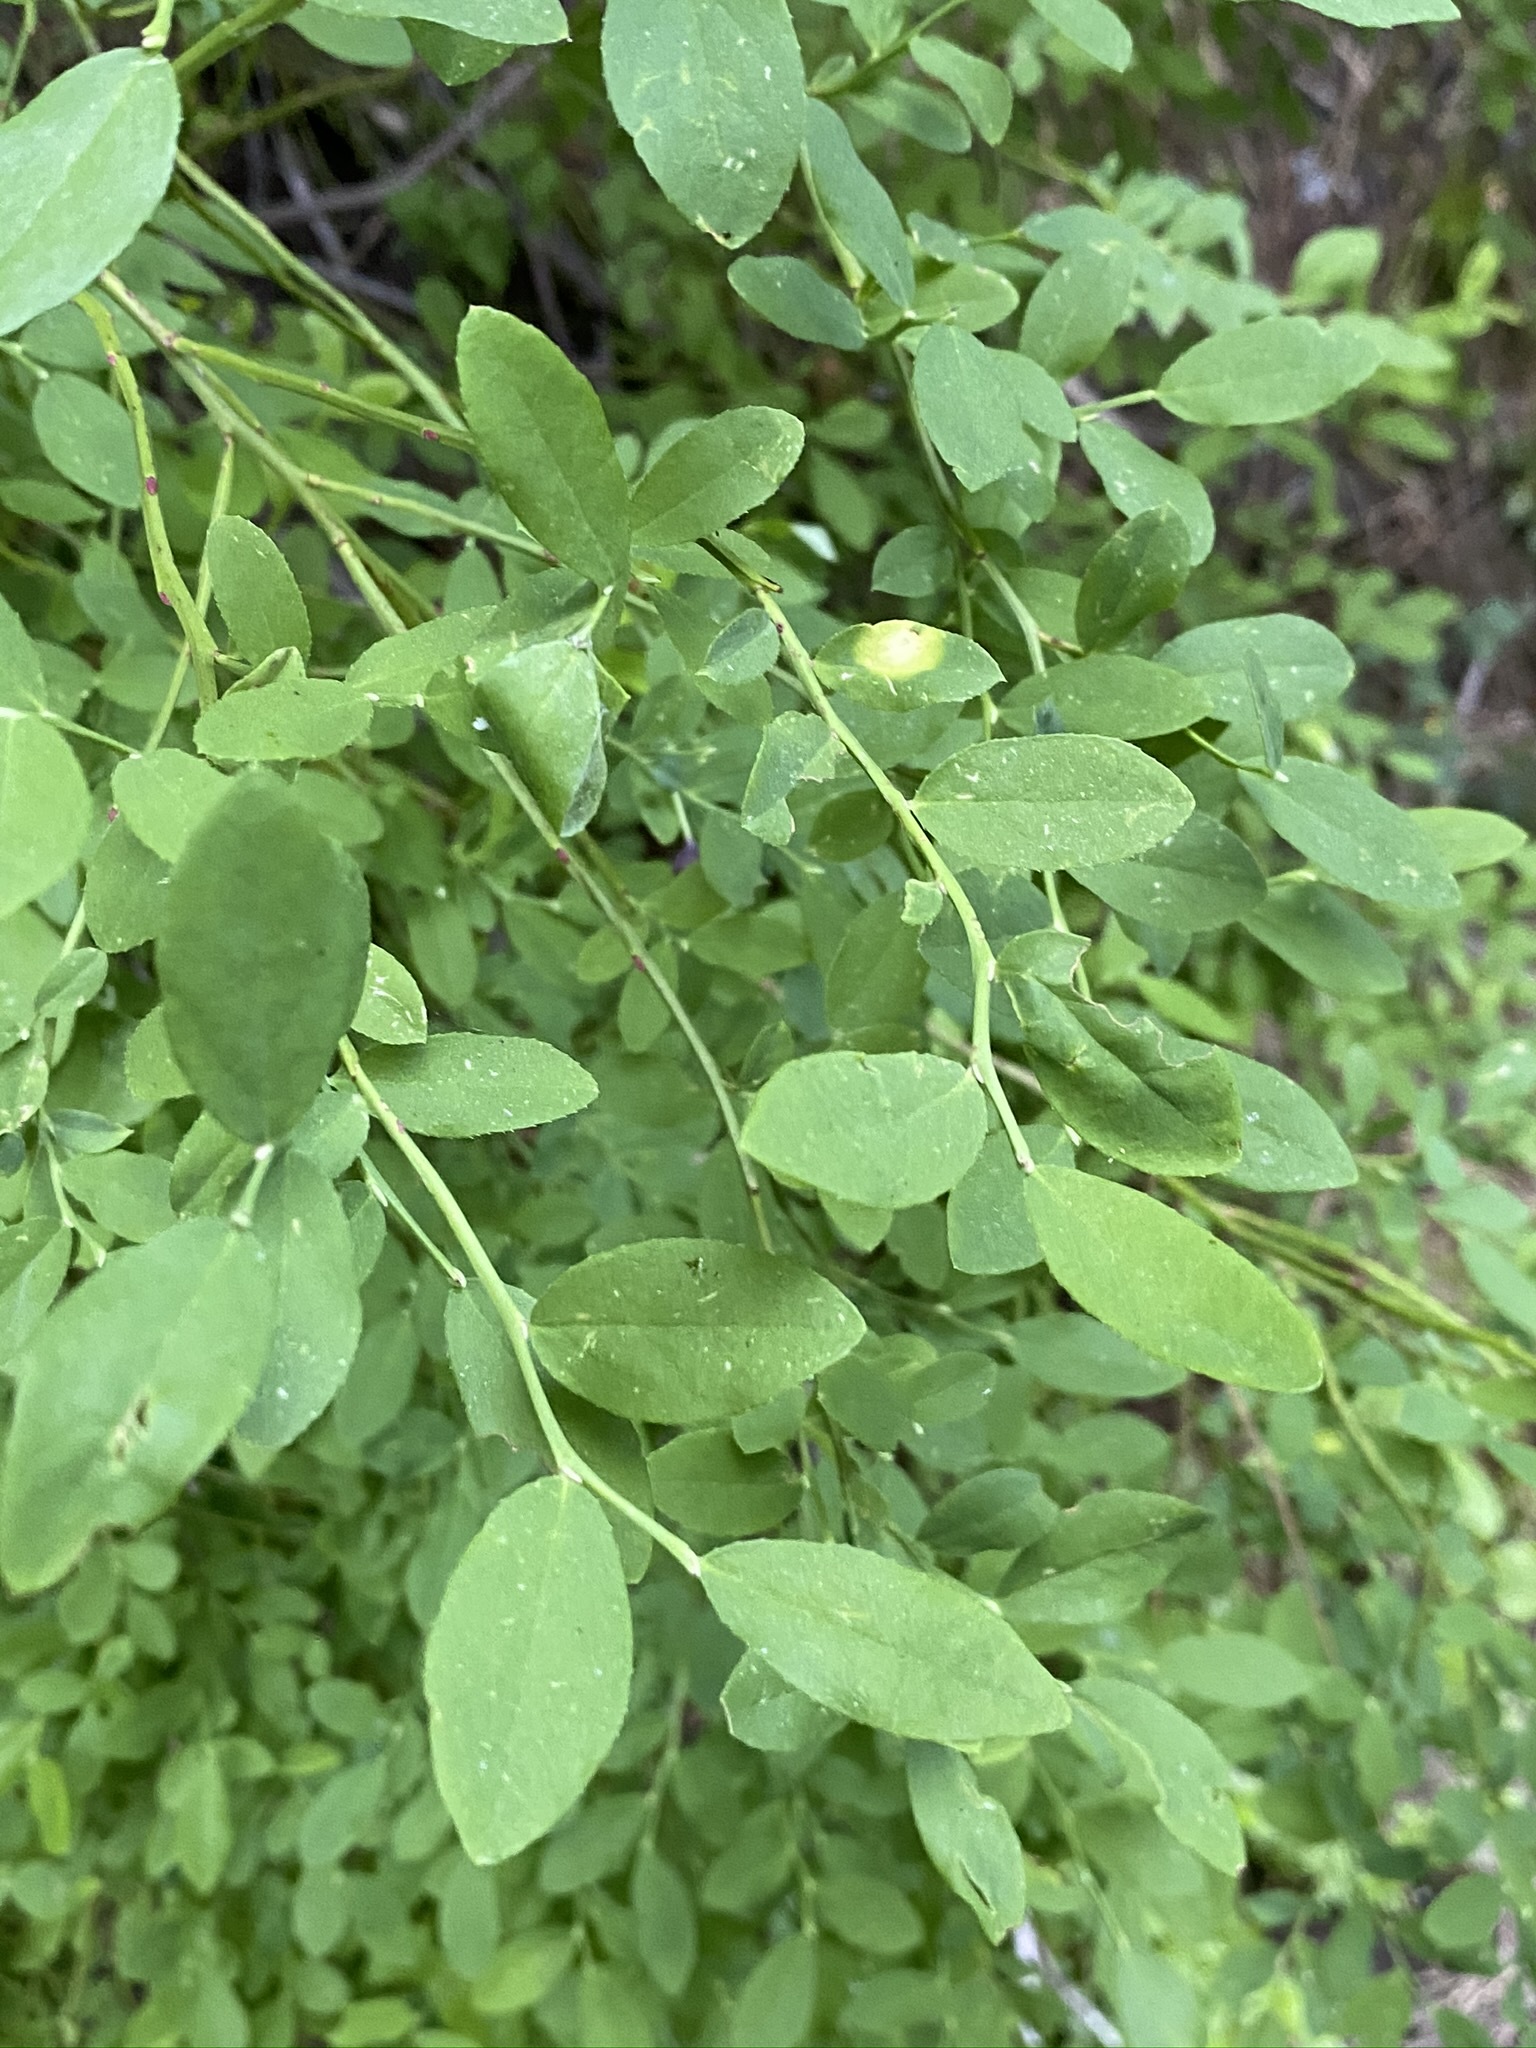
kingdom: Plantae
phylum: Tracheophyta
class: Magnoliopsida
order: Ericales
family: Ericaceae
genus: Vaccinium
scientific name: Vaccinium shastense
